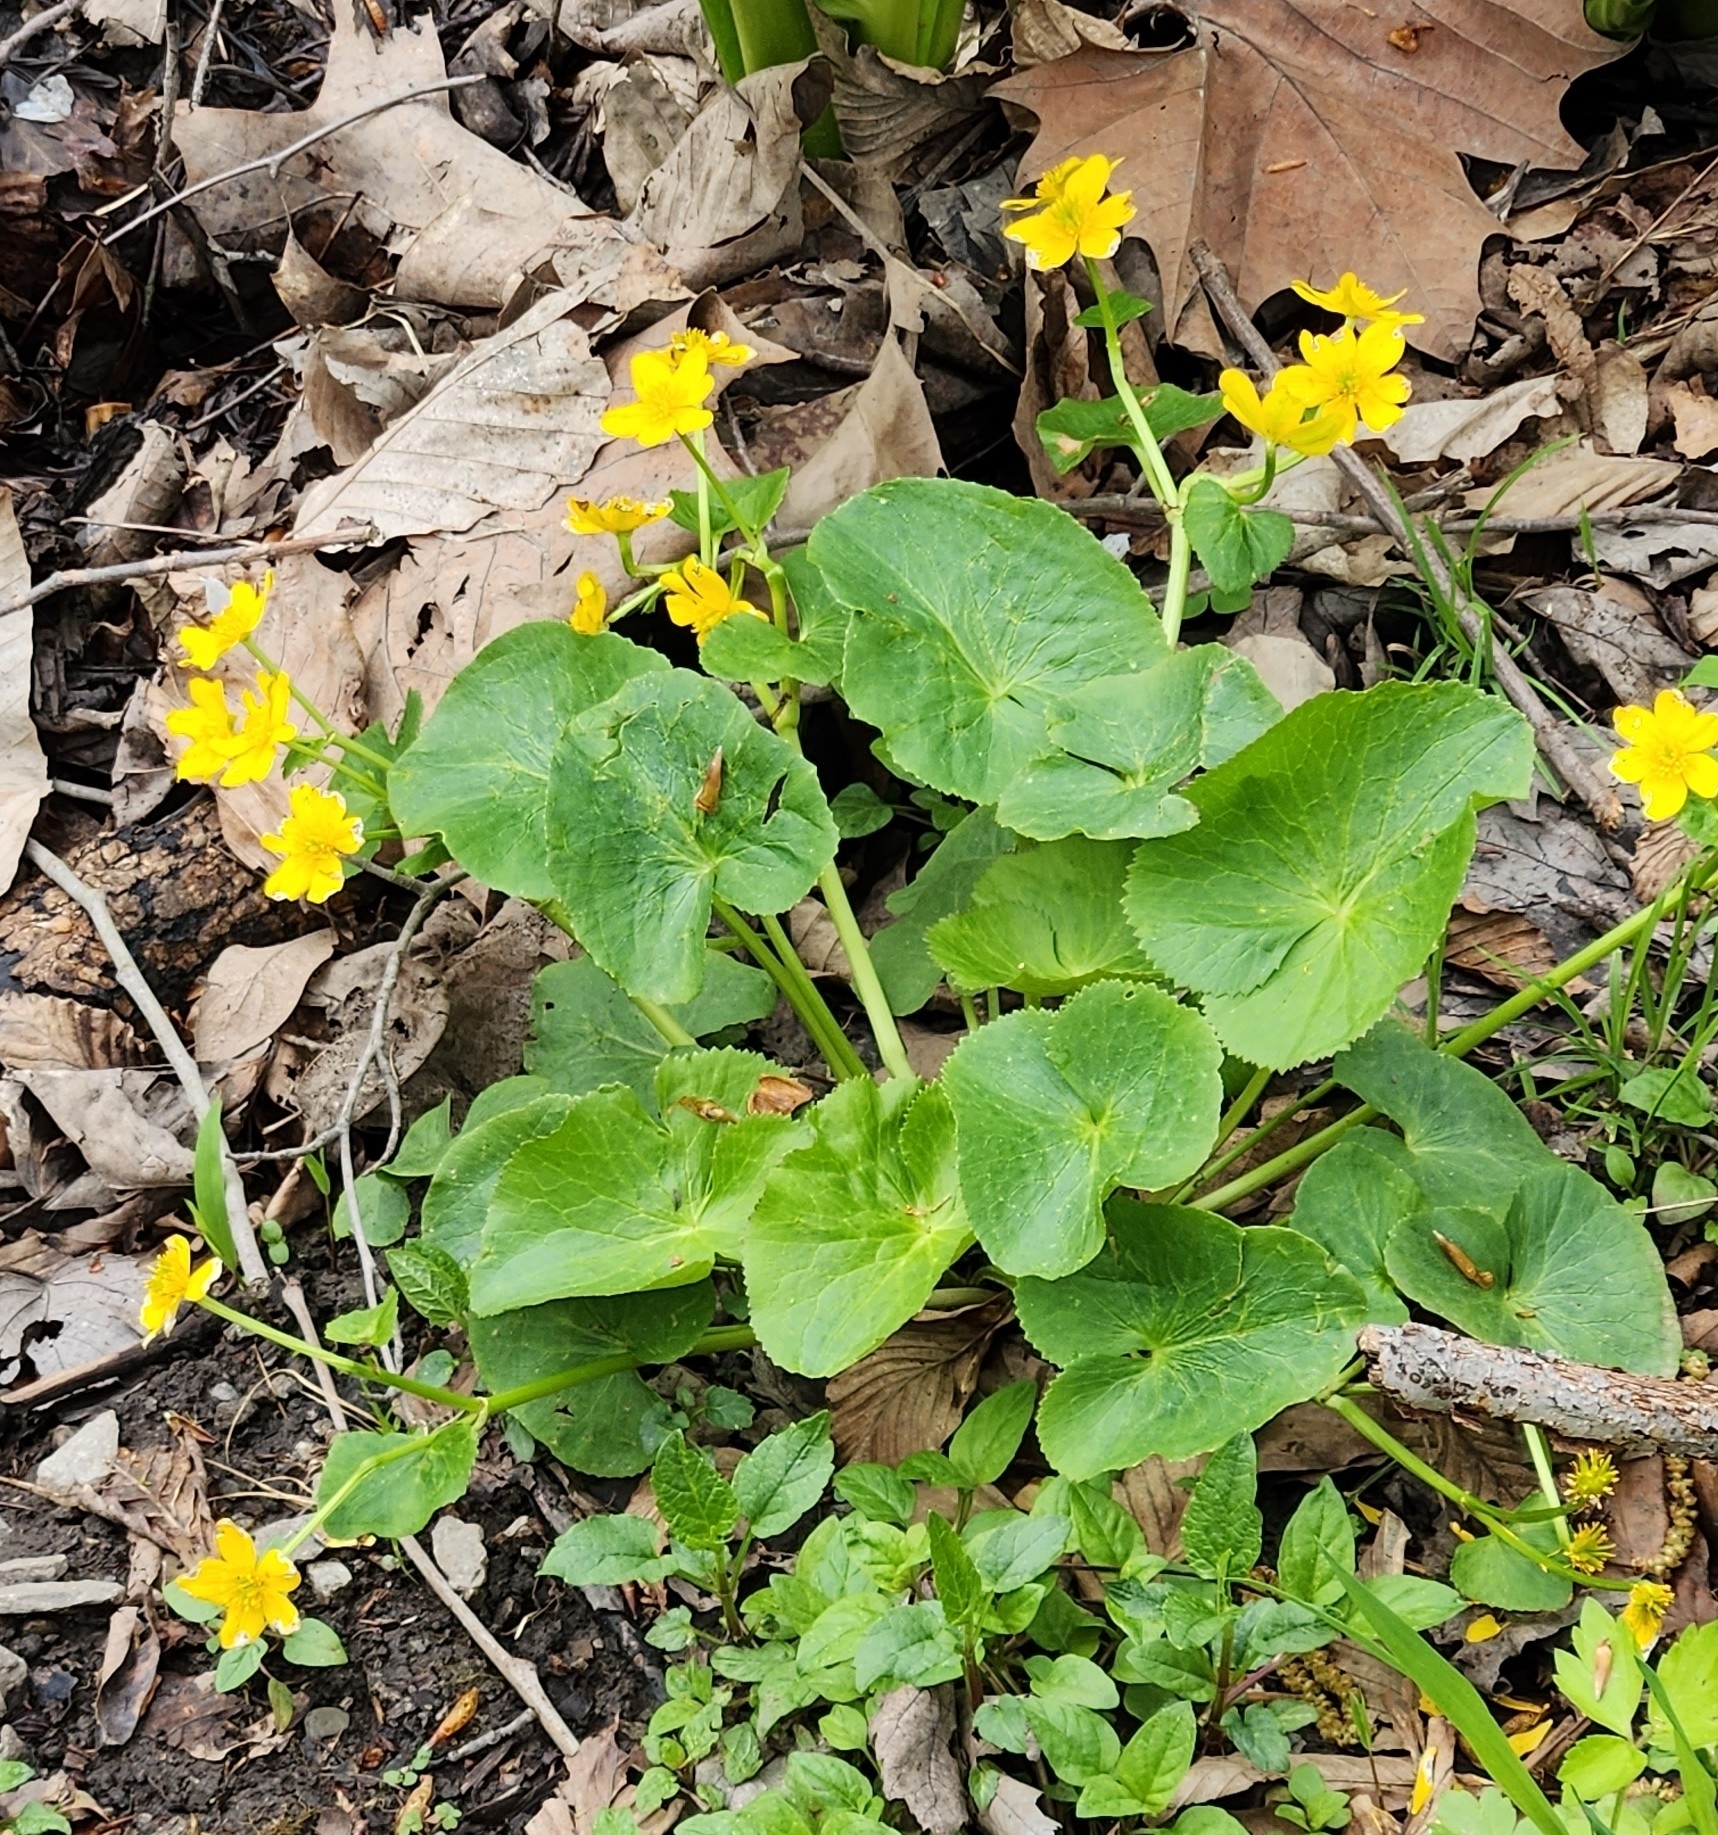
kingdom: Plantae
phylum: Tracheophyta
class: Magnoliopsida
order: Ranunculales
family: Ranunculaceae
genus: Caltha
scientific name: Caltha palustris
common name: Marsh marigold
